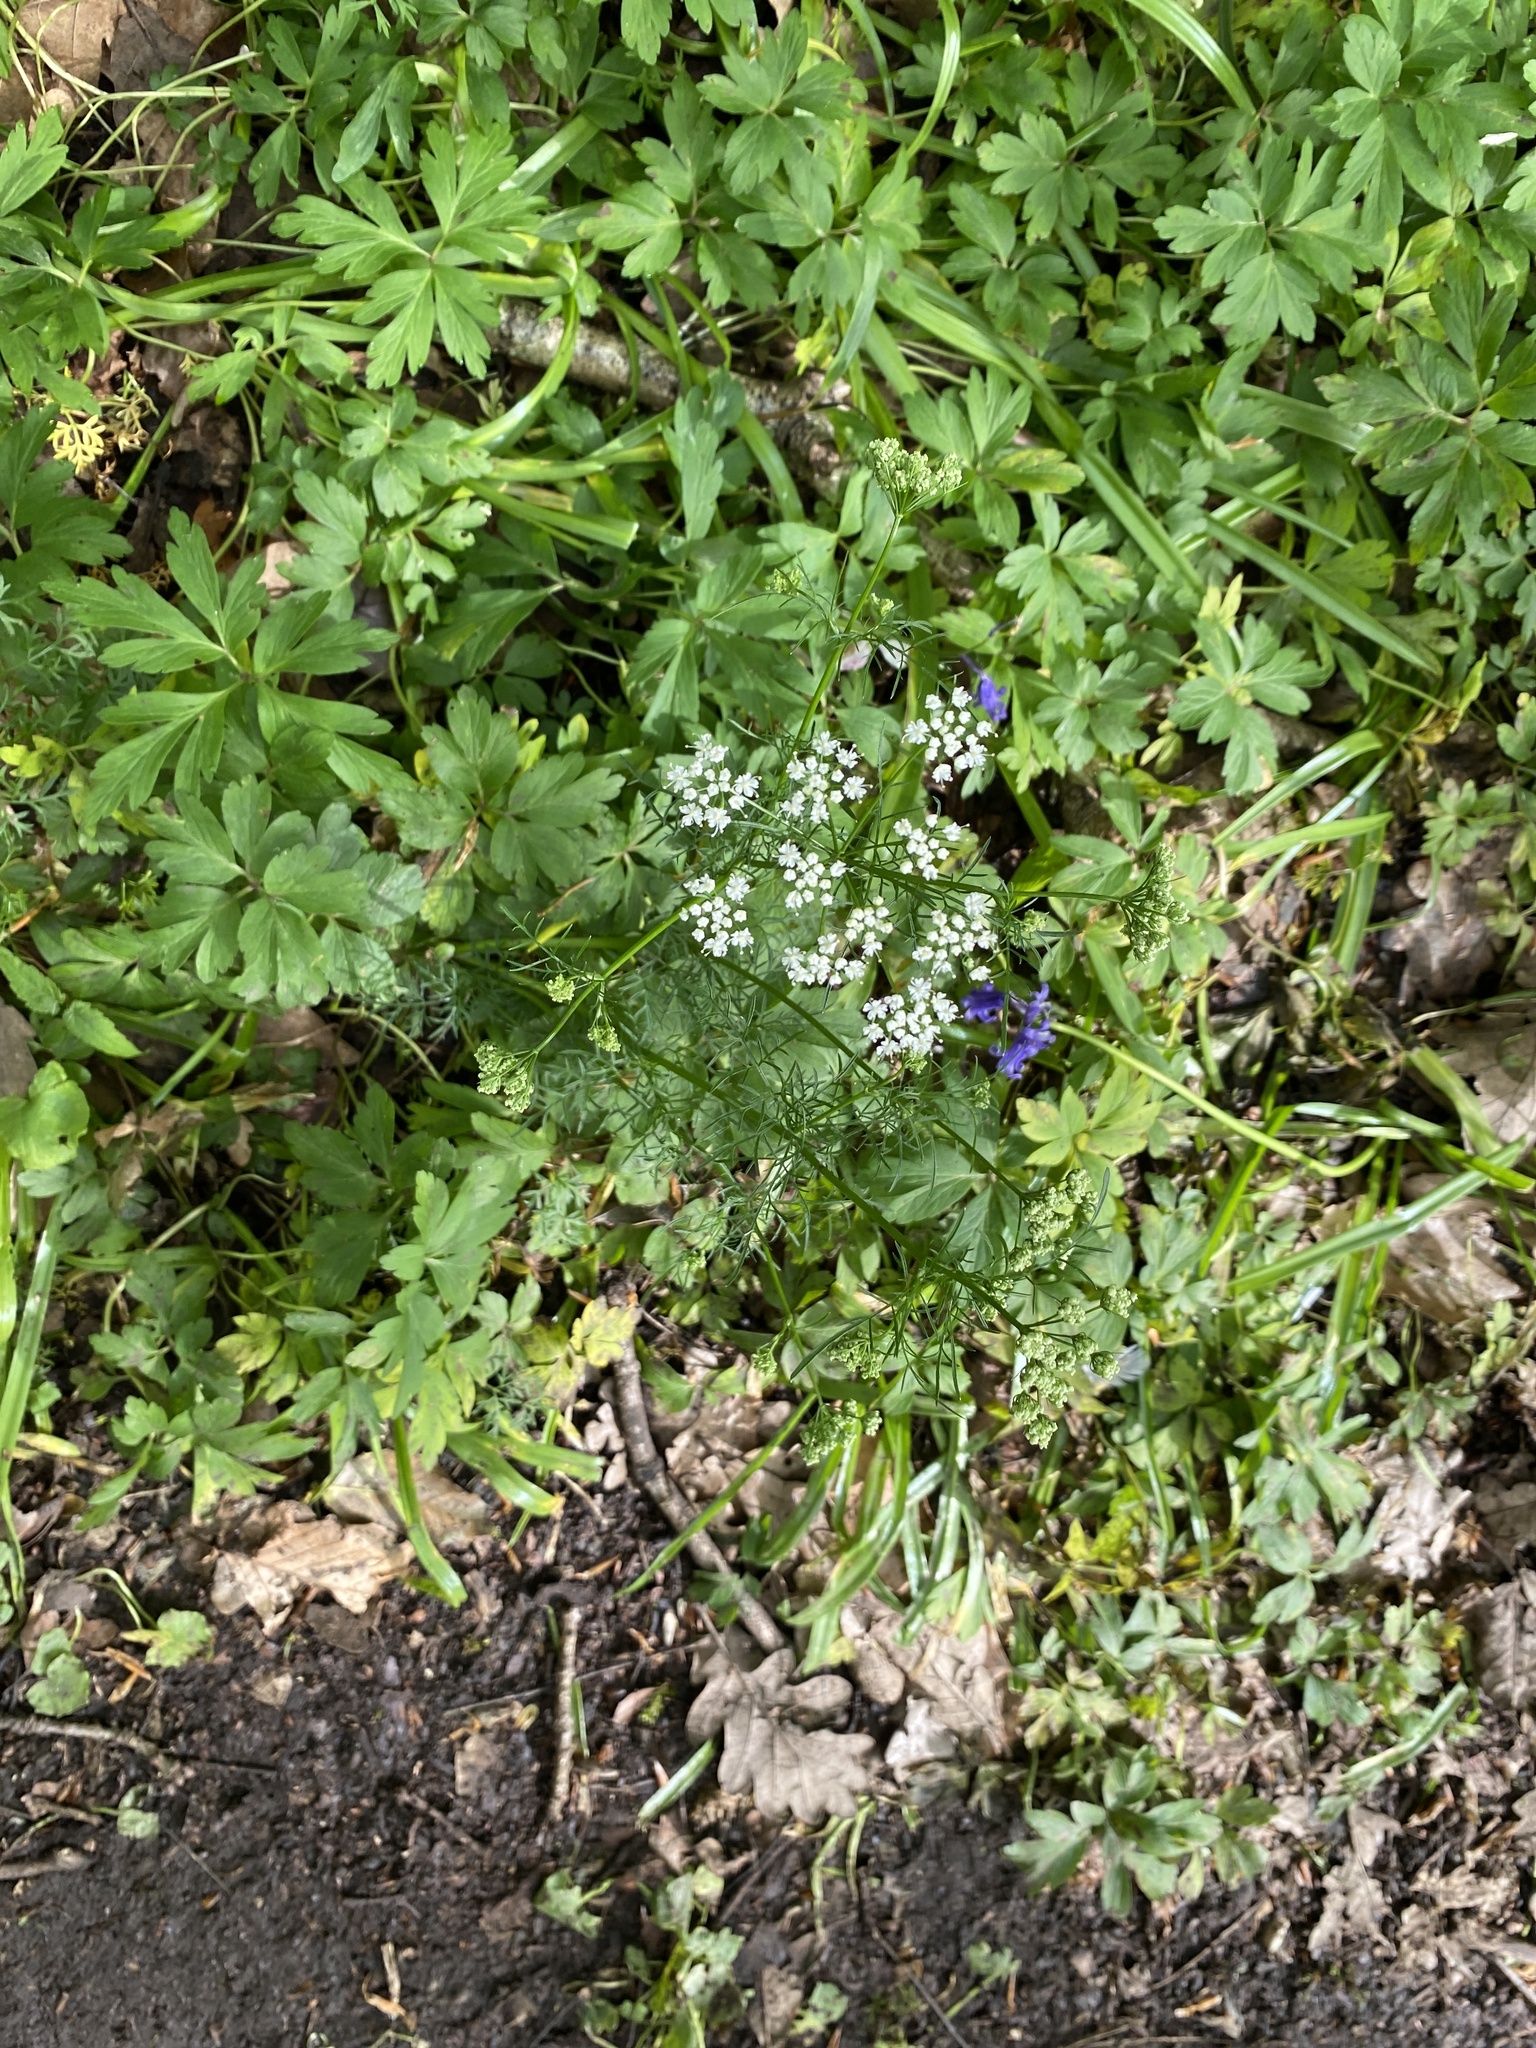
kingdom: Plantae
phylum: Tracheophyta
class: Magnoliopsida
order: Apiales
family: Apiaceae
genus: Conopodium
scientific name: Conopodium majus
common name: Pignut
